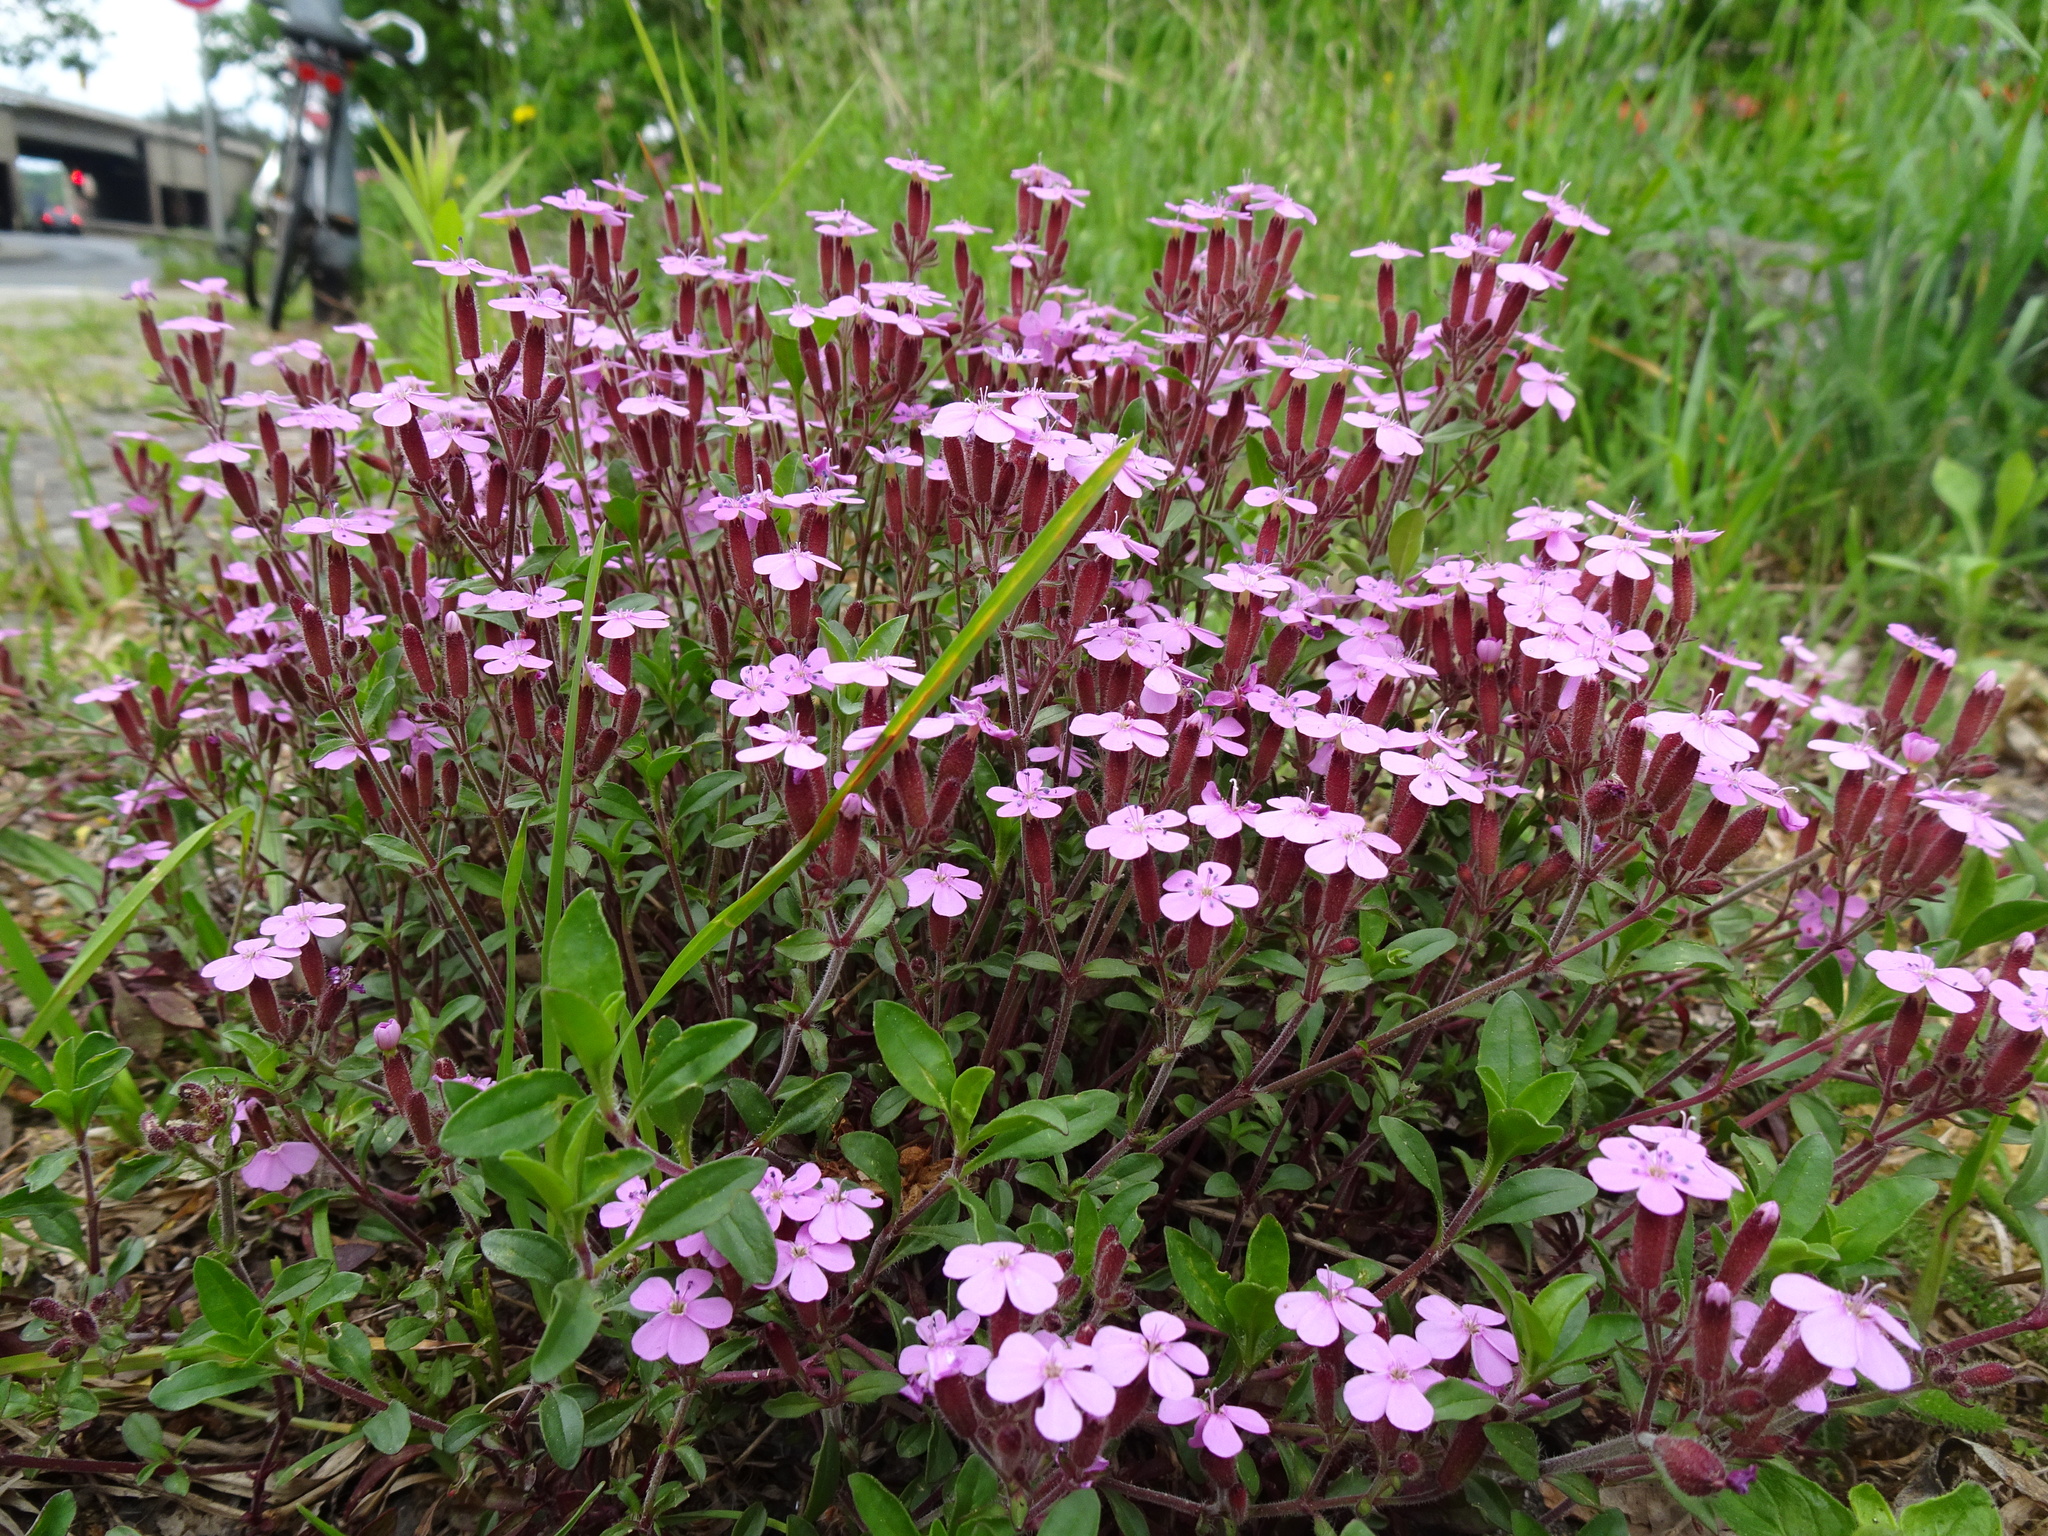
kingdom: Plantae
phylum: Tracheophyta
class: Magnoliopsida
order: Caryophyllales
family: Caryophyllaceae
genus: Saponaria
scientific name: Saponaria ocymoides
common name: Rock soapwort
